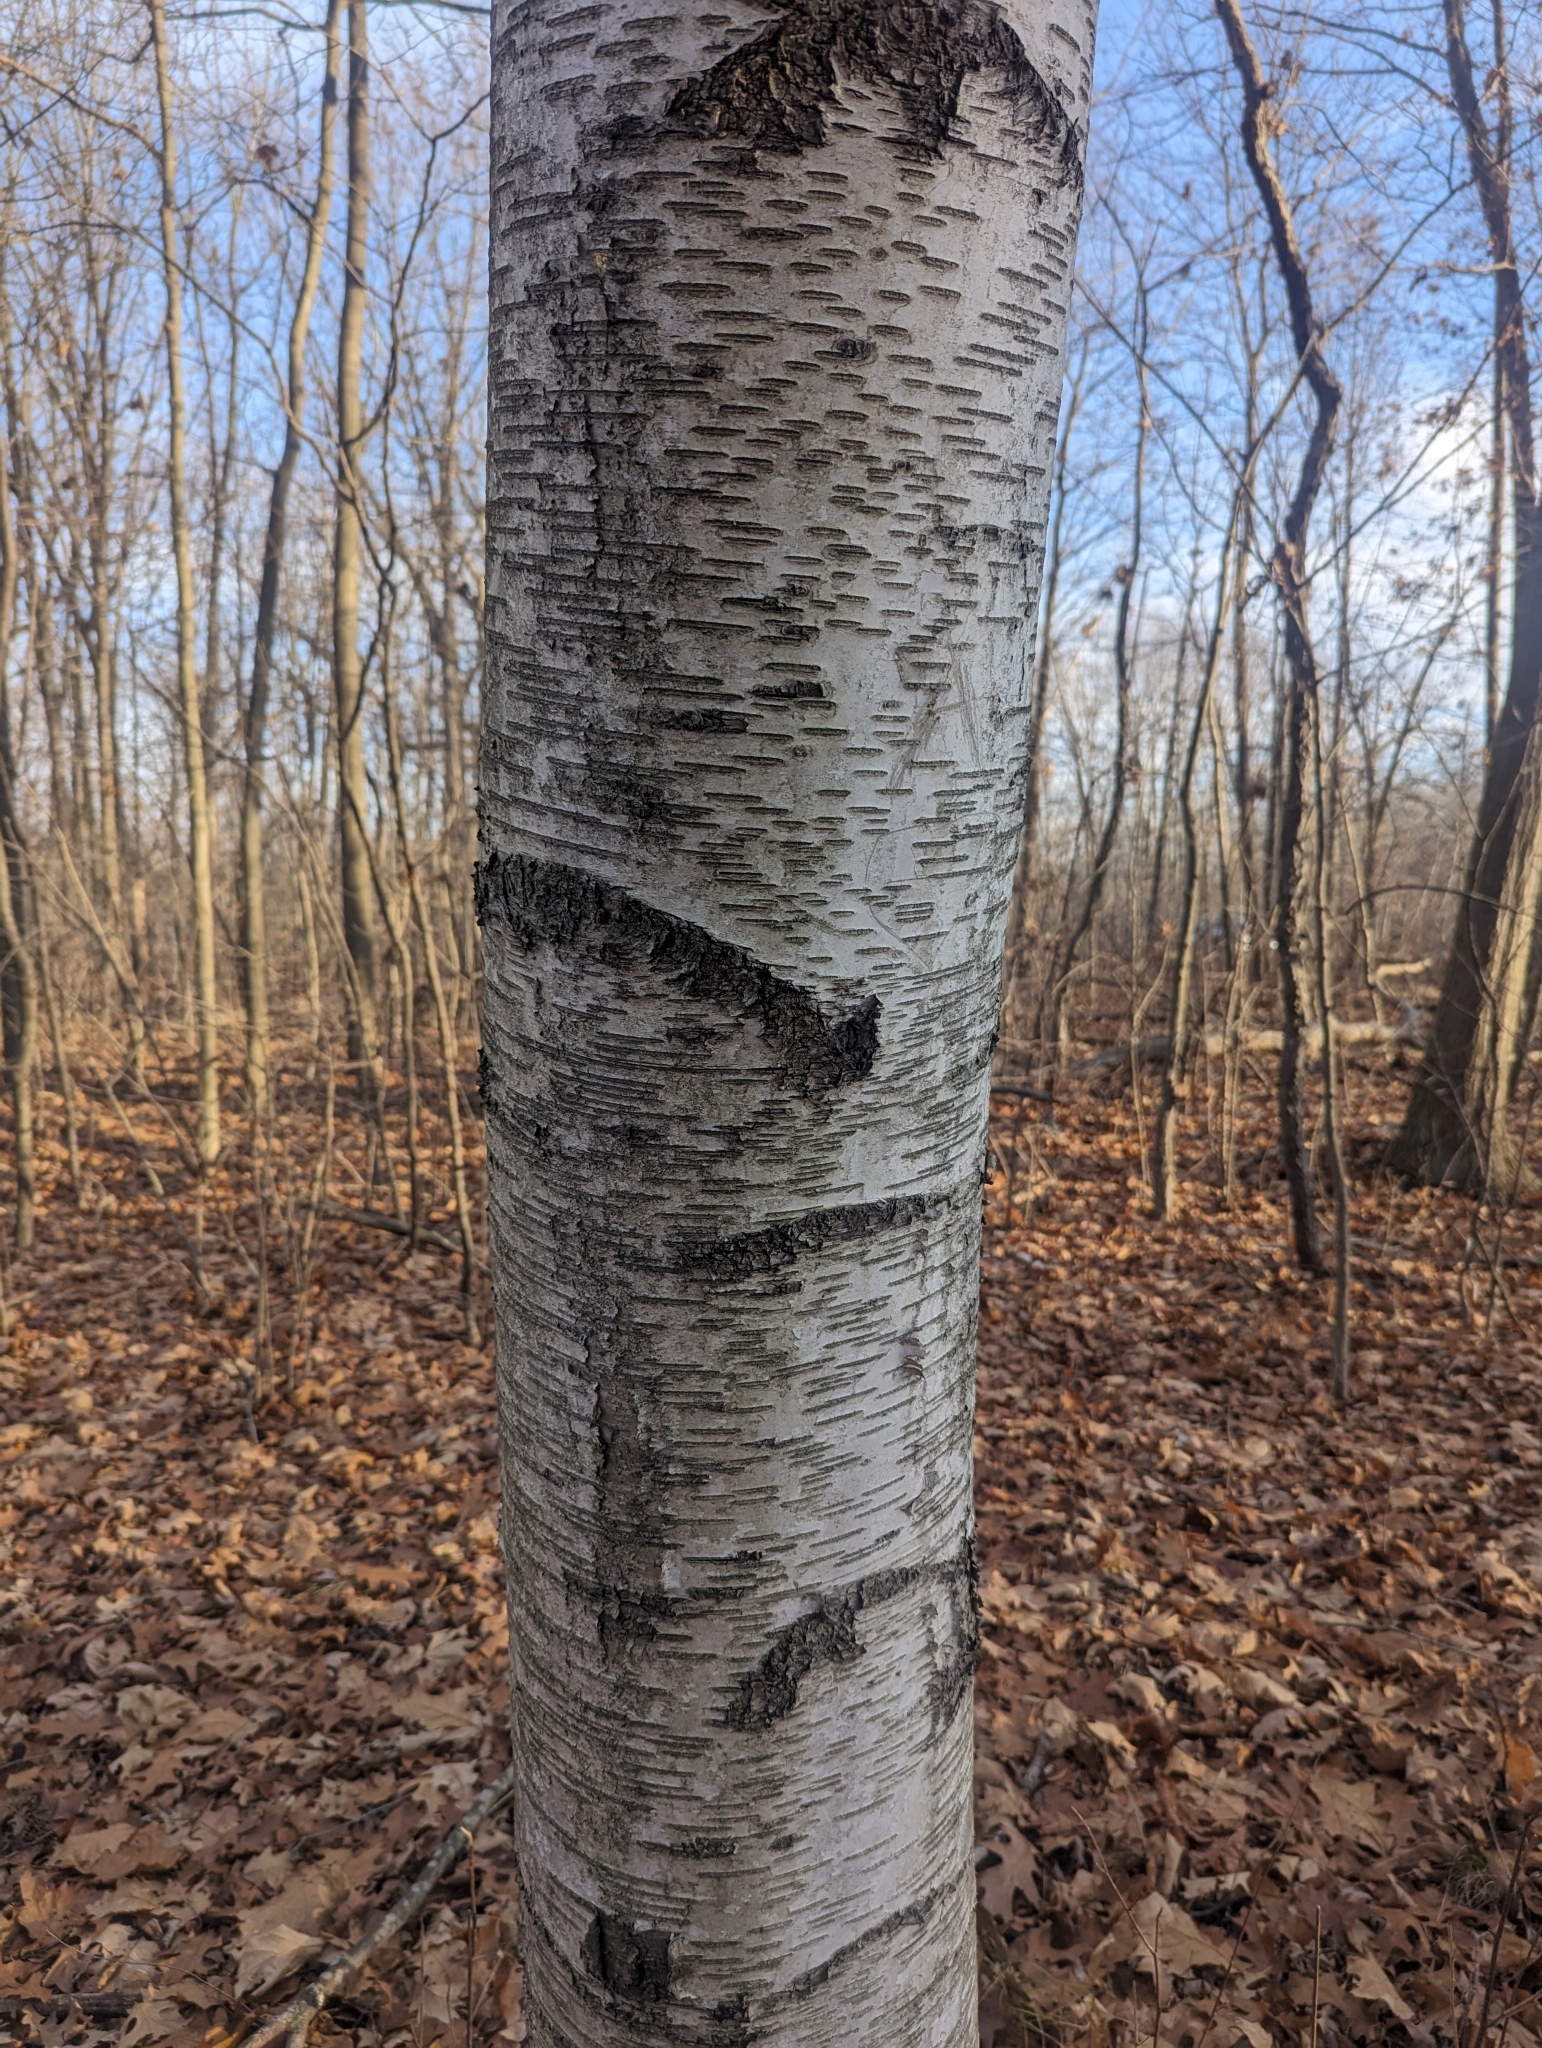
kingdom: Plantae
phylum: Tracheophyta
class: Magnoliopsida
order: Fagales
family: Betulaceae
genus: Betula
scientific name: Betula papyrifera
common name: Paper birch
